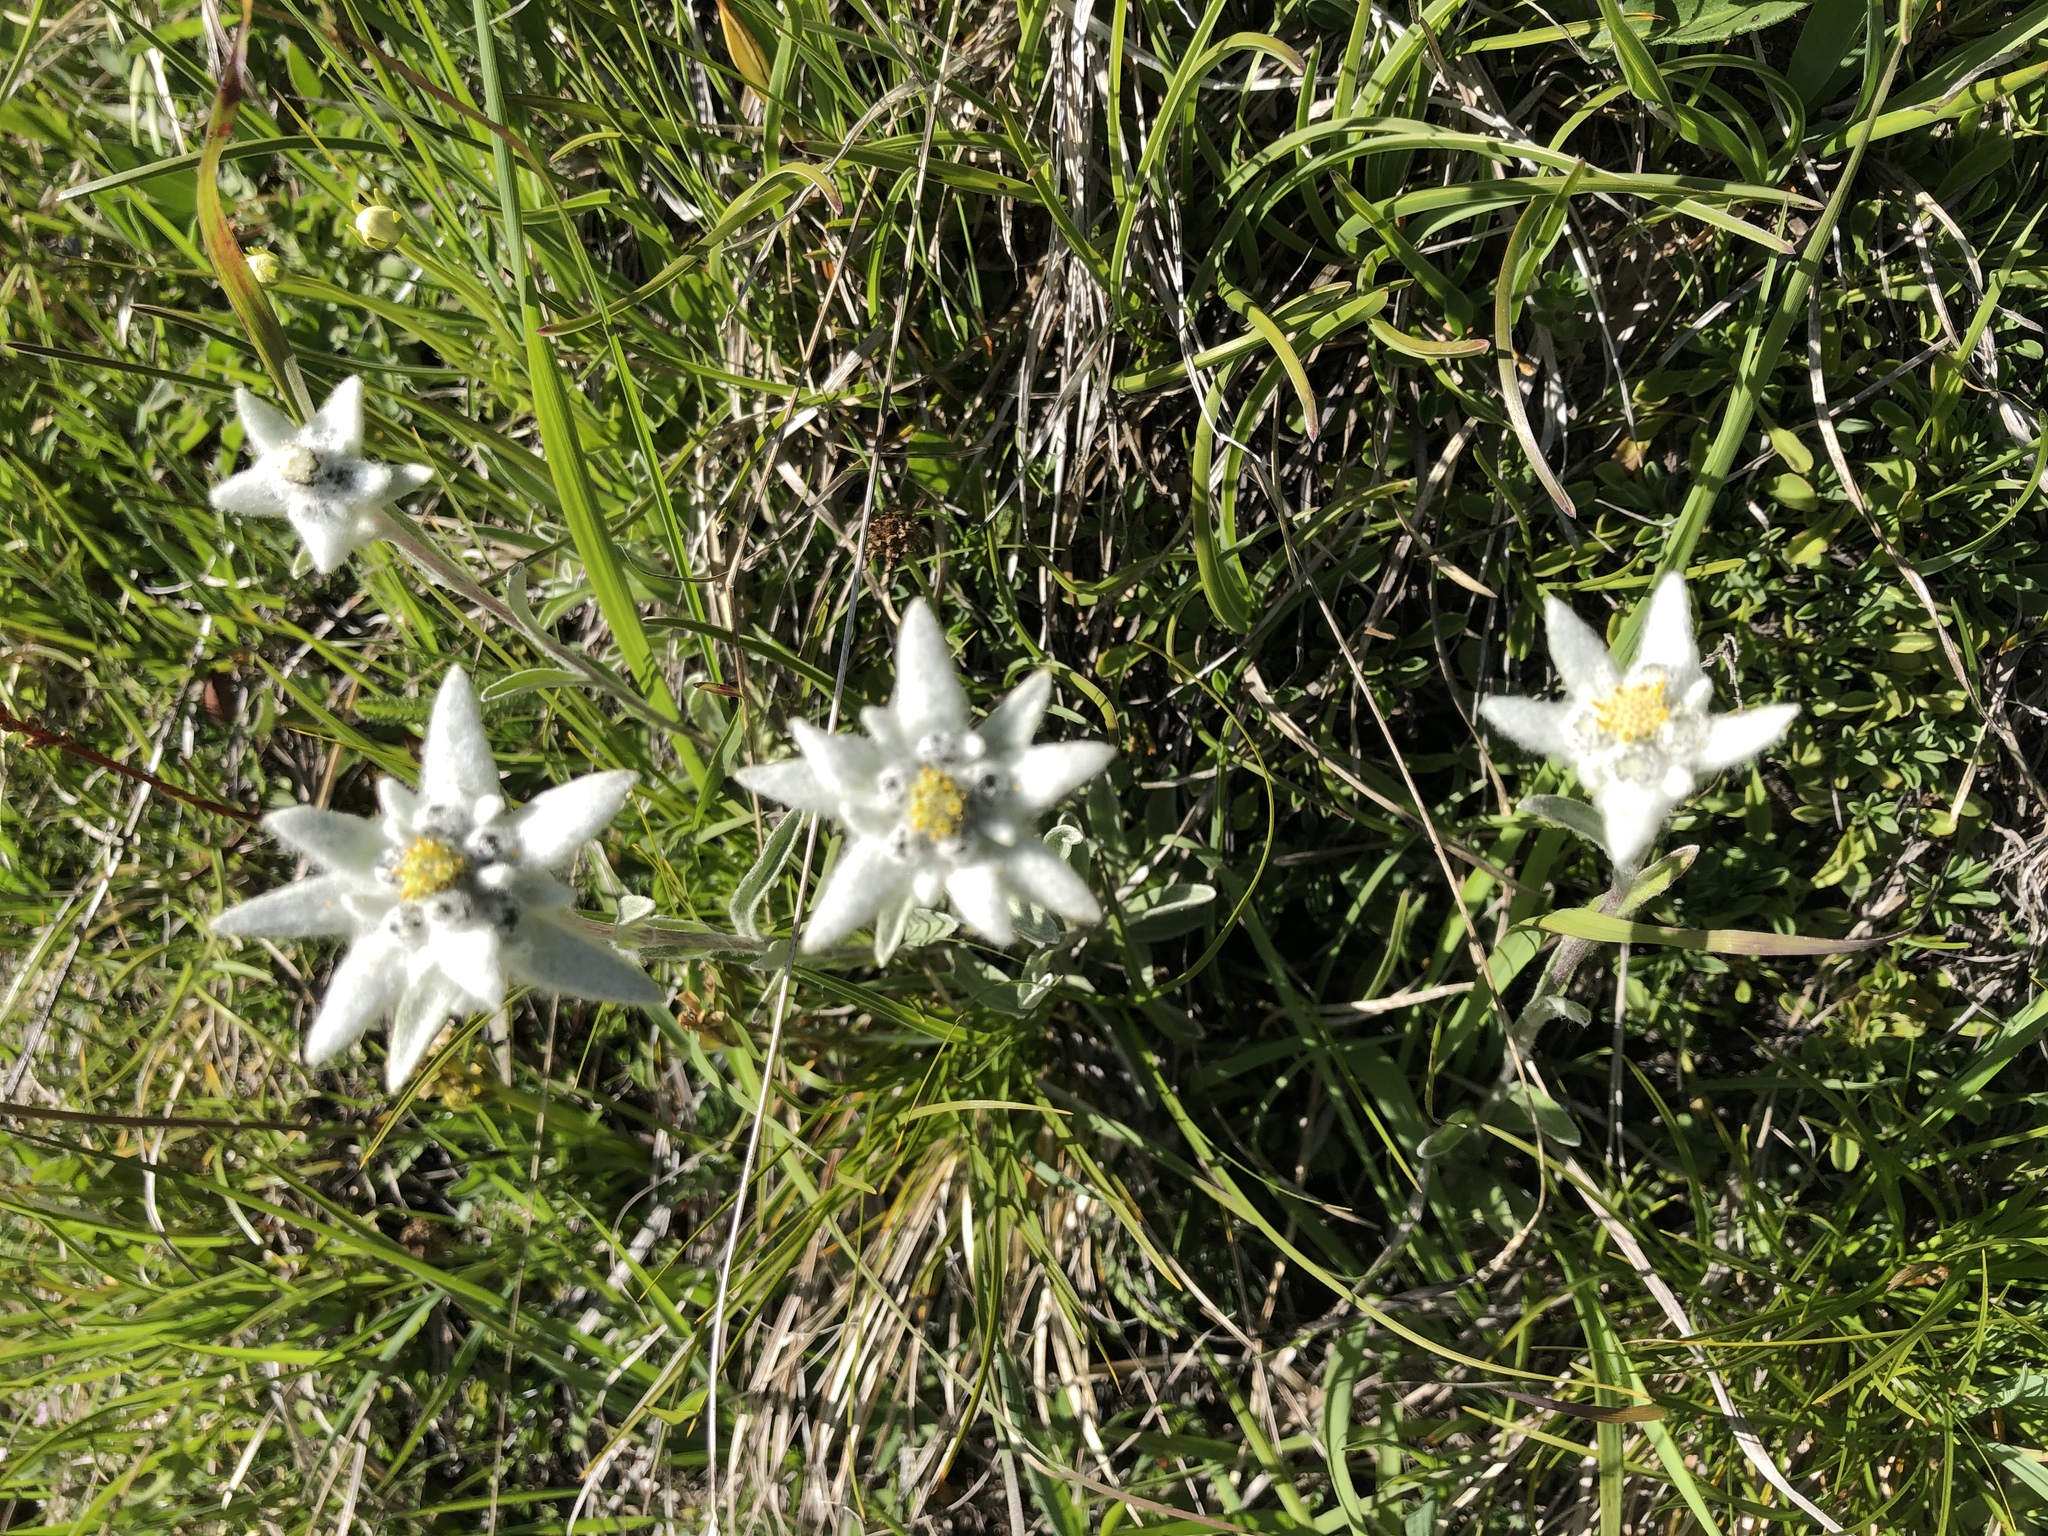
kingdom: Plantae
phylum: Tracheophyta
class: Magnoliopsida
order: Asterales
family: Asteraceae
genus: Leontopodium
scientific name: Leontopodium nivale
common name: Edelweiss
